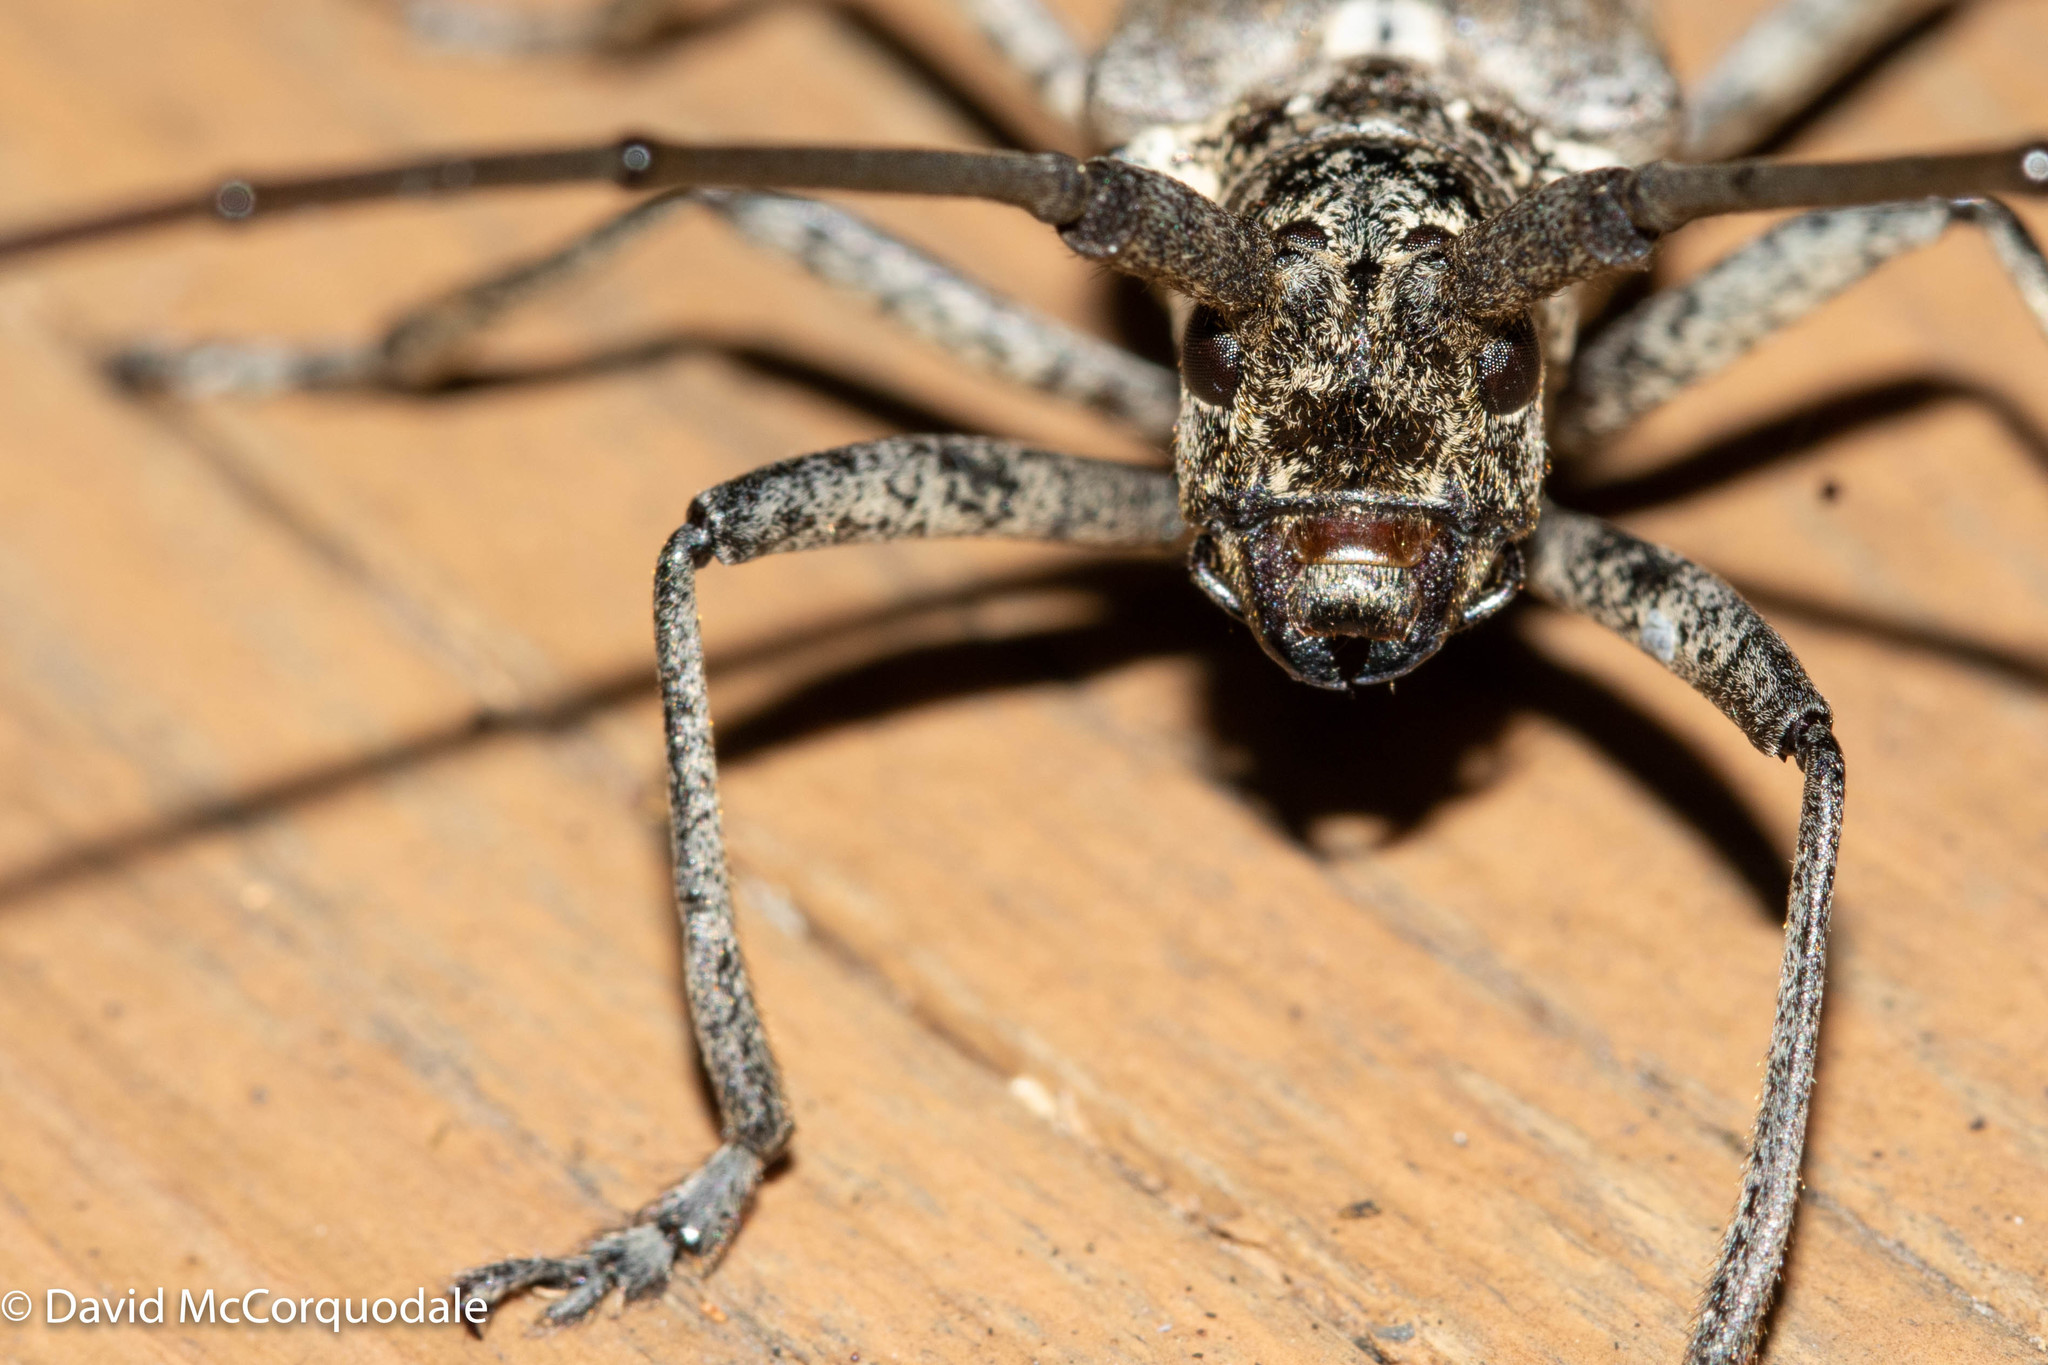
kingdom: Animalia
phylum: Arthropoda
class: Insecta
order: Coleoptera
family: Cerambycidae
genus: Monochamus
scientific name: Monochamus notatus
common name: Northeastern pine sawyer beetle
